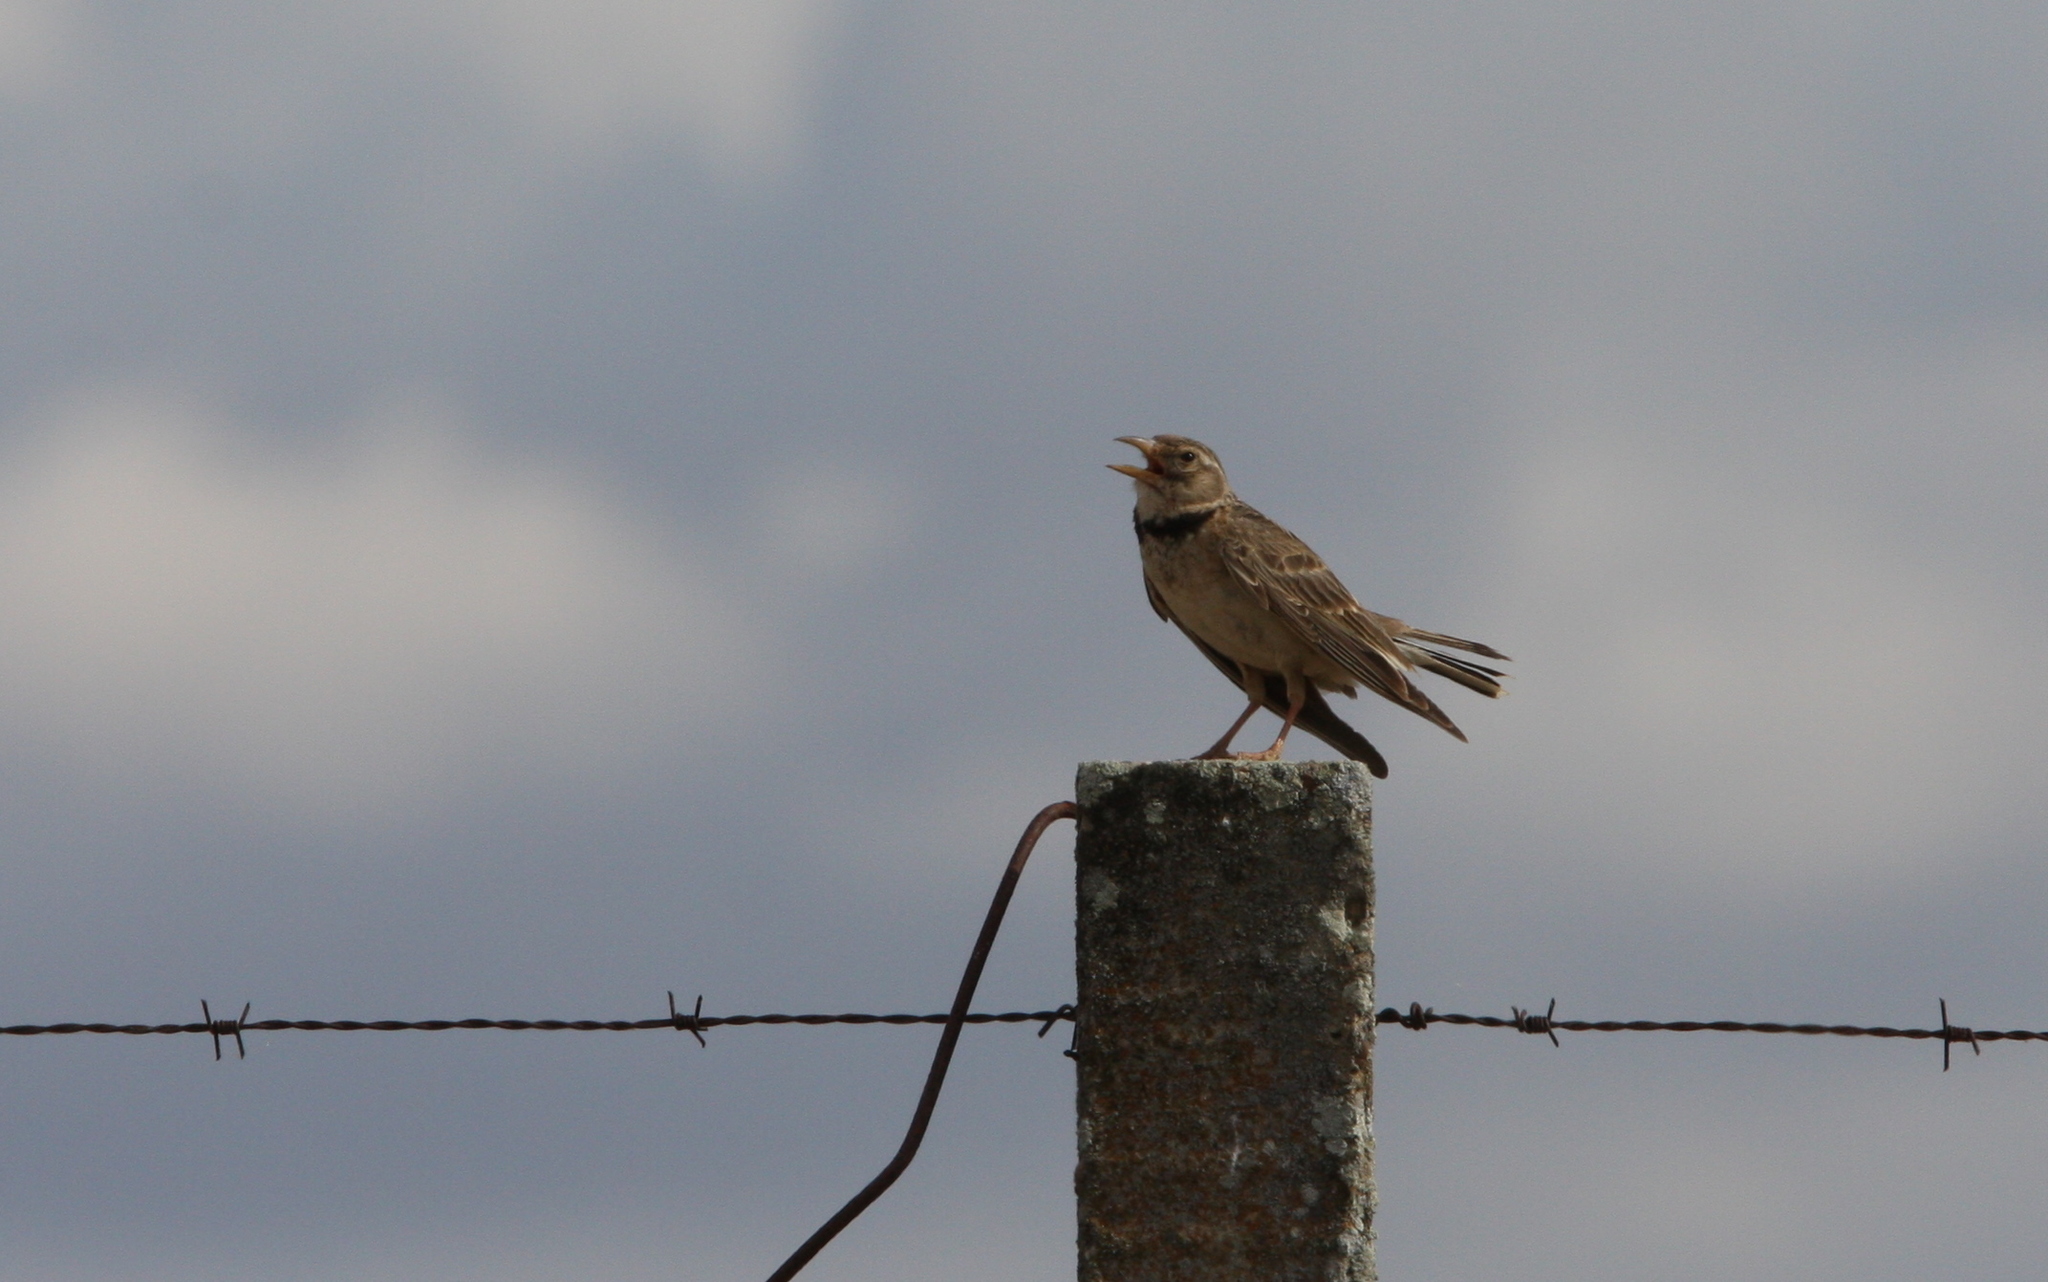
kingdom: Animalia
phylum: Chordata
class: Aves
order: Passeriformes
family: Alaudidae
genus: Melanocorypha
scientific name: Melanocorypha calandra
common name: Calandra lark
